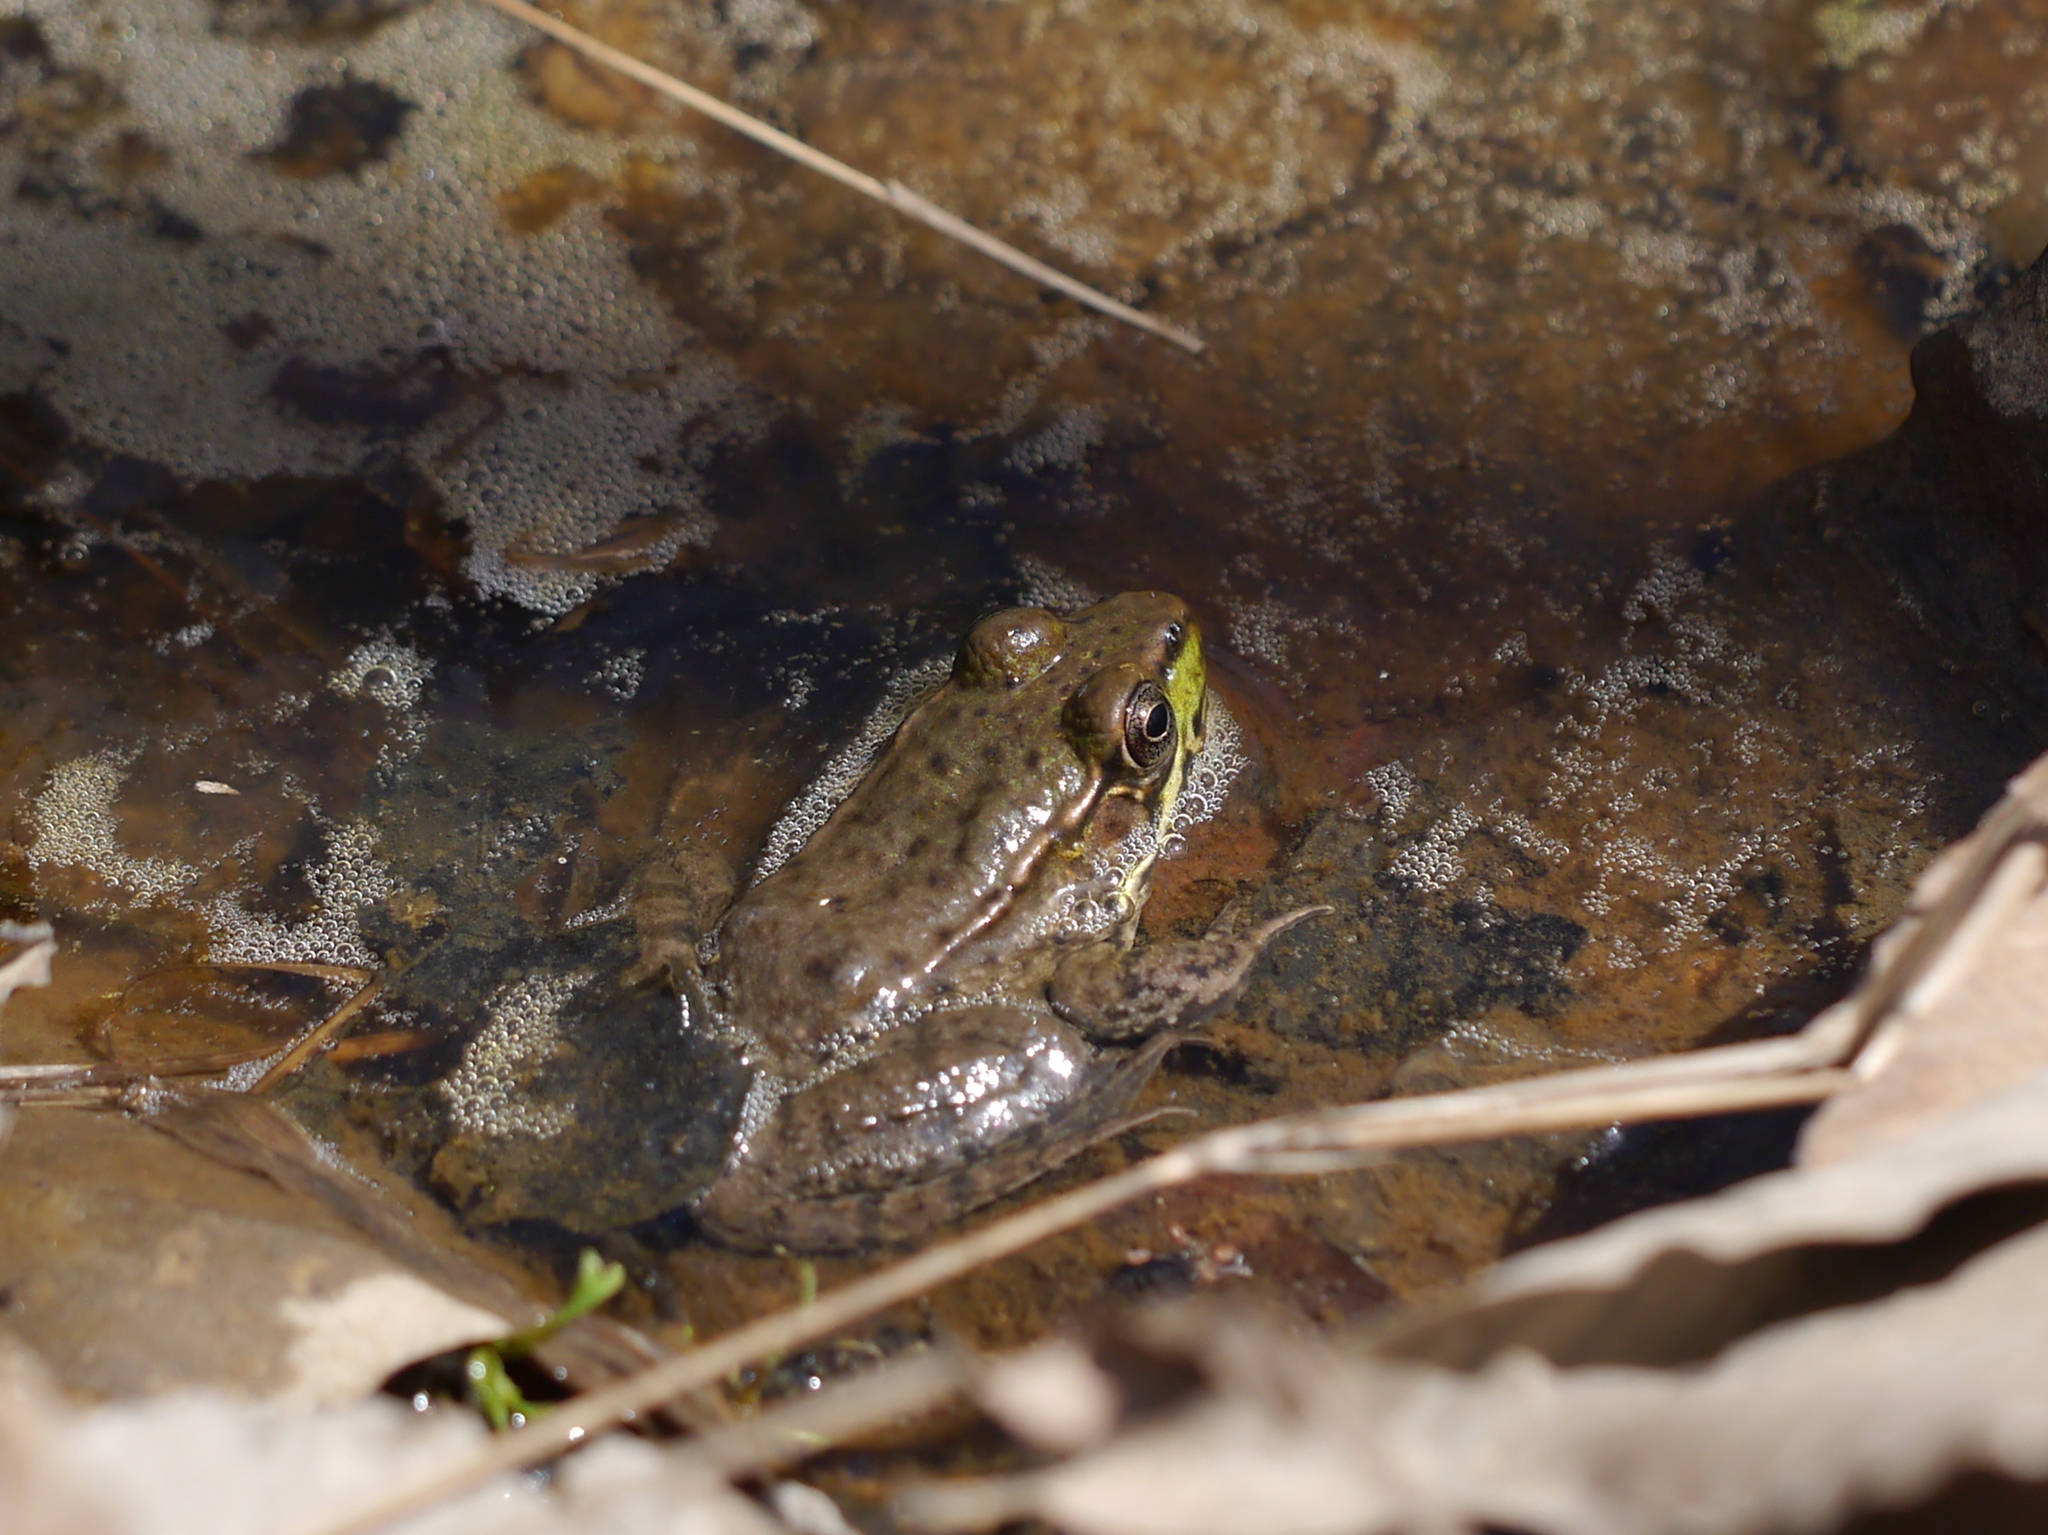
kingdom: Animalia
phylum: Chordata
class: Amphibia
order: Anura
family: Ranidae
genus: Lithobates
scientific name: Lithobates clamitans
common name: Green frog
